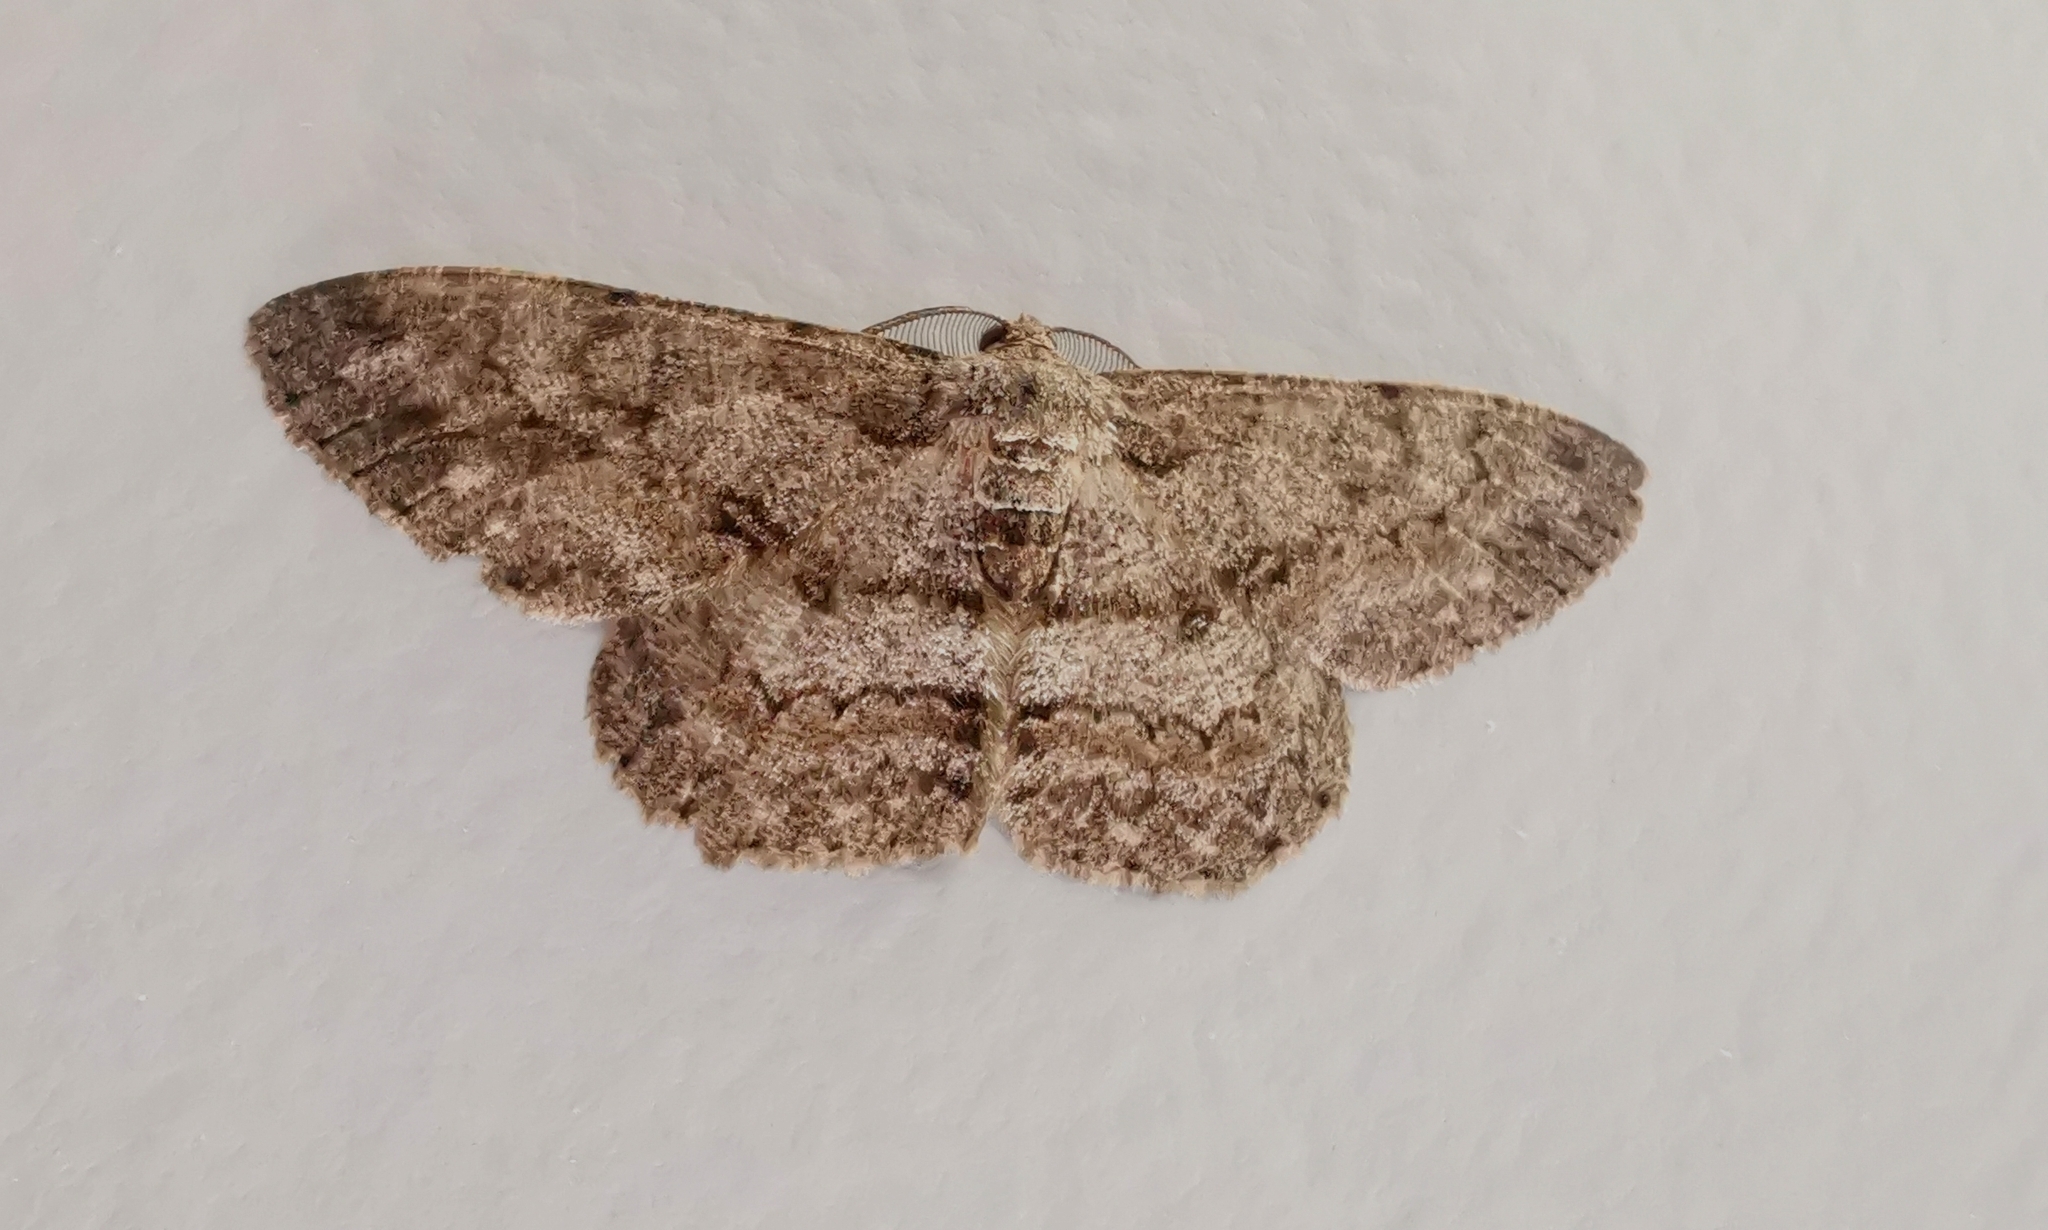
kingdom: Animalia
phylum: Arthropoda
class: Insecta
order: Lepidoptera
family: Geometridae
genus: Hypomecis
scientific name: Hypomecis punctinalis
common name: Pale oak beauty
